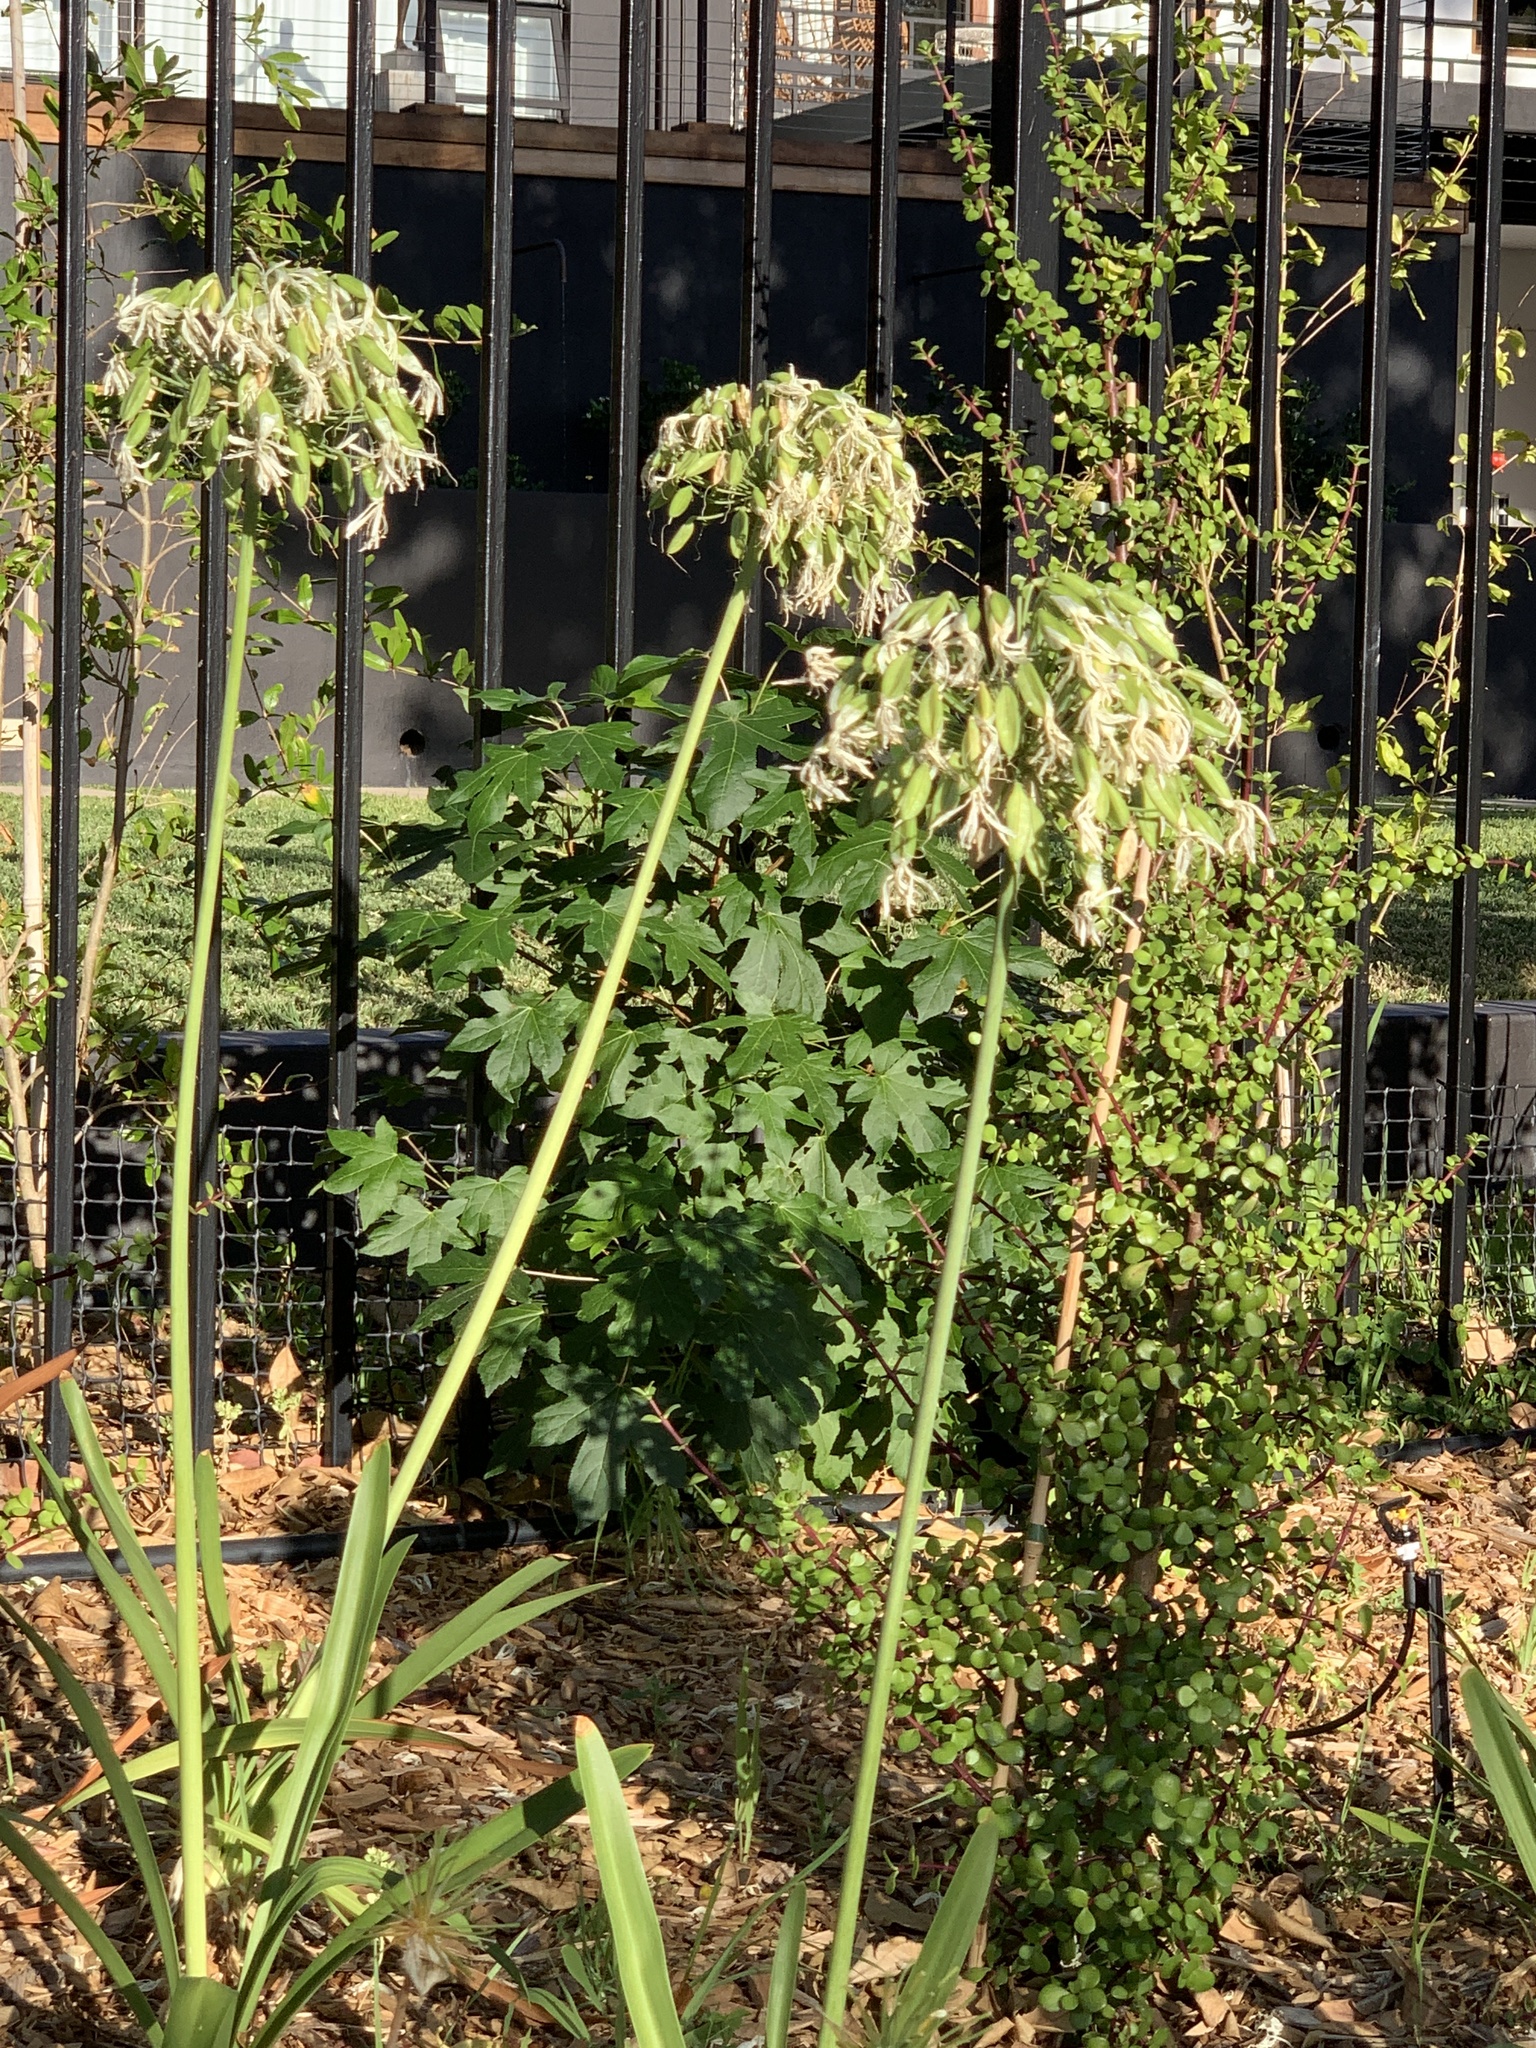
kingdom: Plantae
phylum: Tracheophyta
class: Magnoliopsida
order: Saxifragales
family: Altingiaceae
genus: Liquidambar
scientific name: Liquidambar styraciflua
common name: Sweet gum
